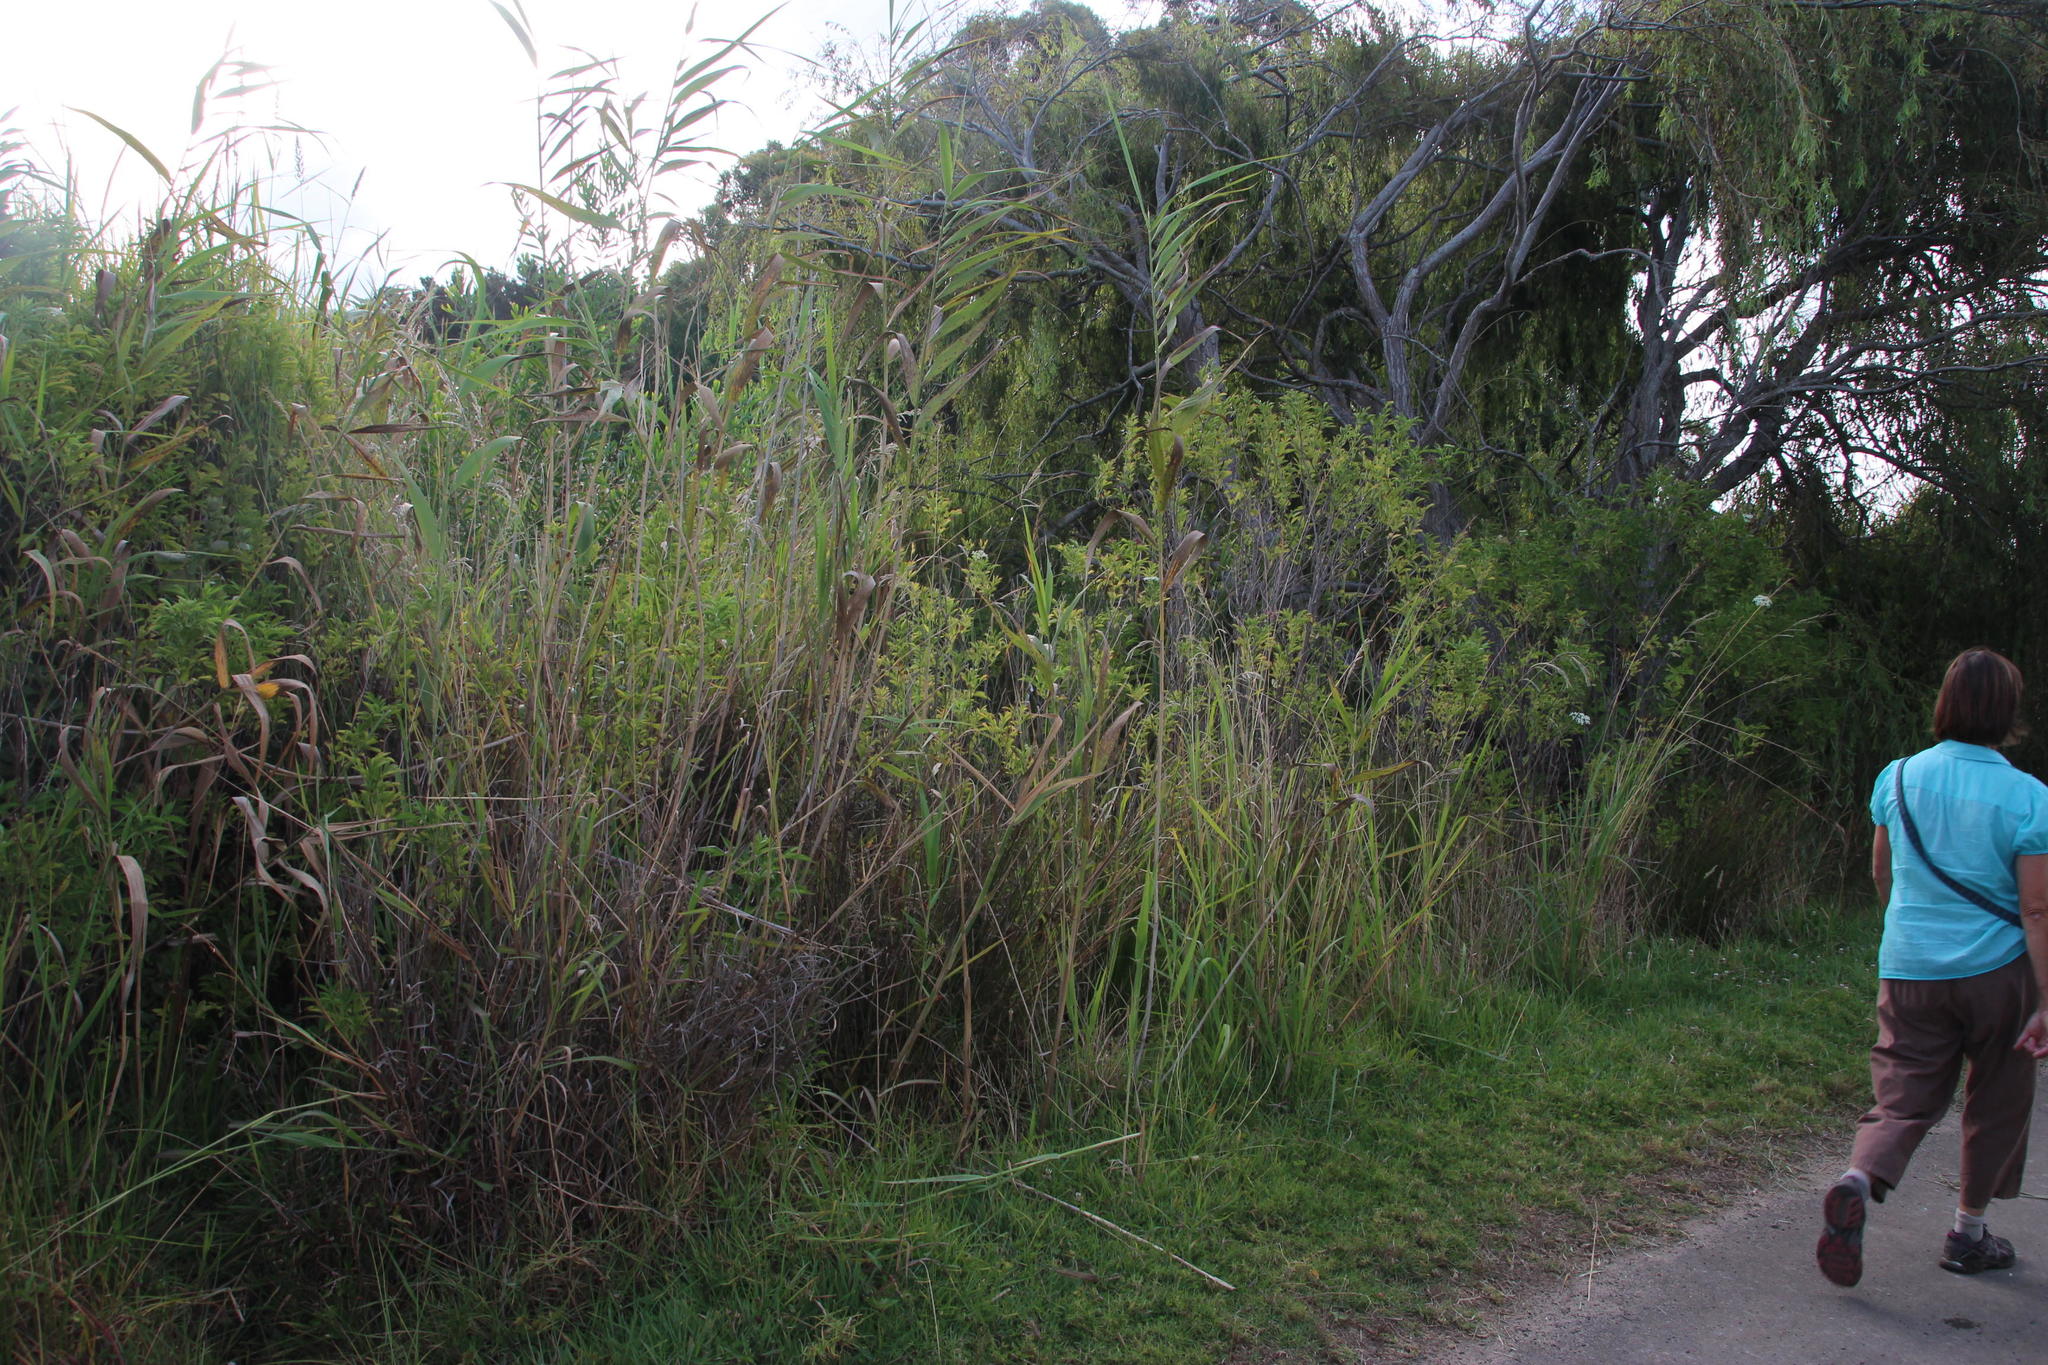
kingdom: Plantae
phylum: Tracheophyta
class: Magnoliopsida
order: Dipsacales
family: Viburnaceae
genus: Sambucus
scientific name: Sambucus nigra
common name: Elder
